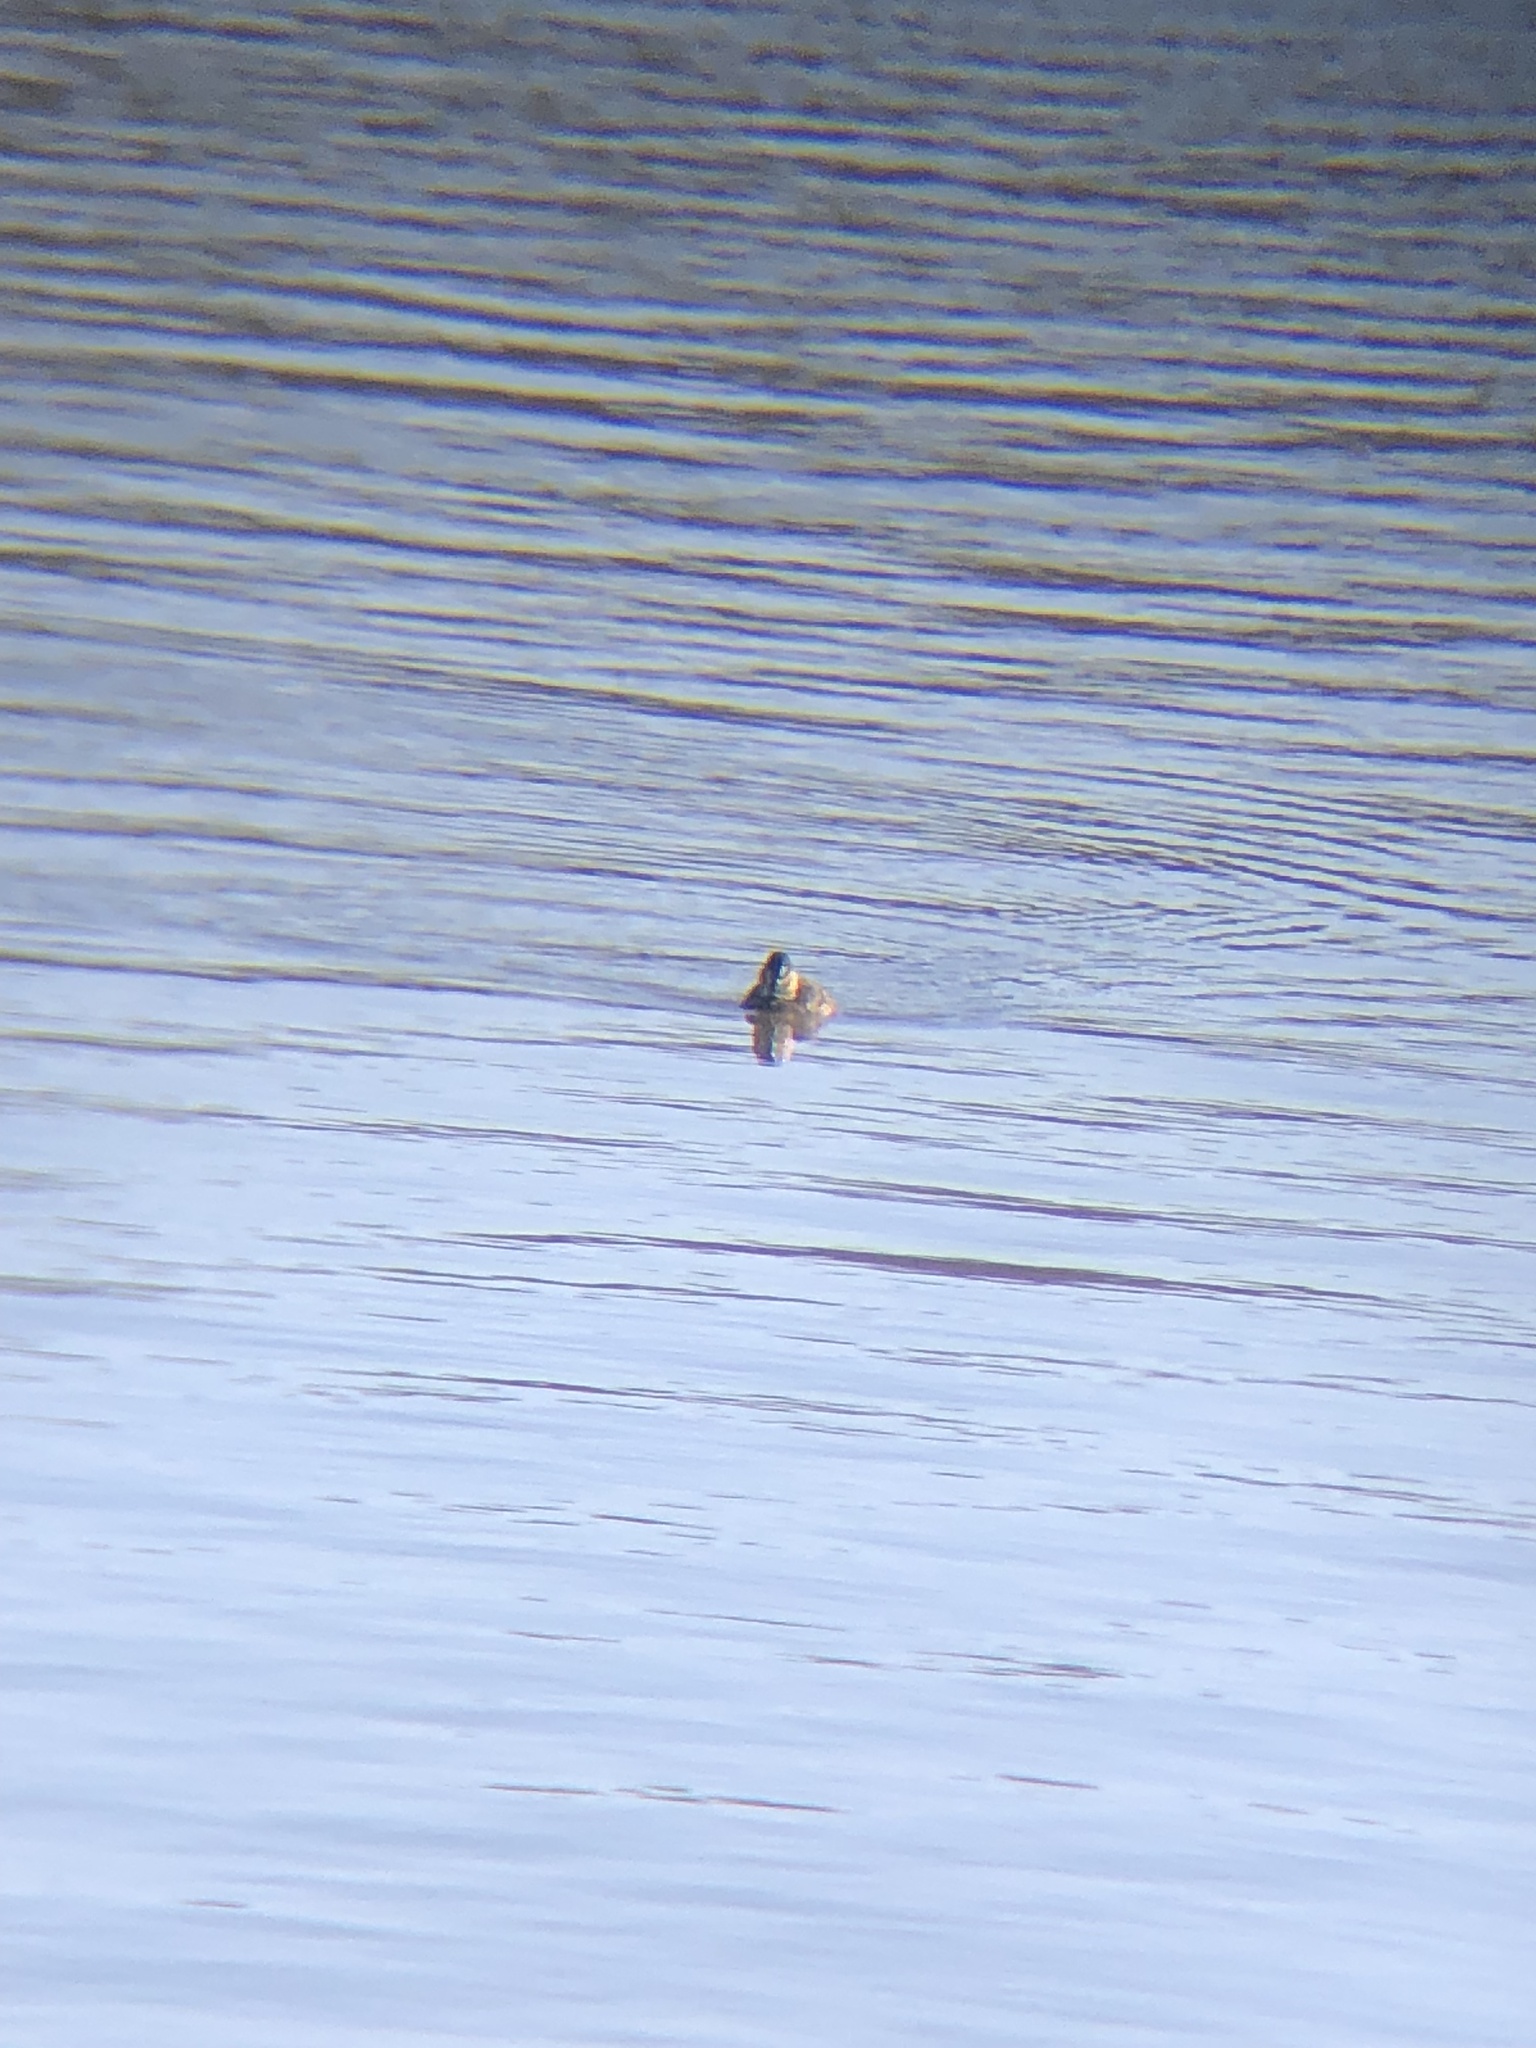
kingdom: Animalia
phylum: Chordata
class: Aves
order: Anseriformes
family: Anatidae
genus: Oxyura
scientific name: Oxyura jamaicensis
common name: Ruddy duck
